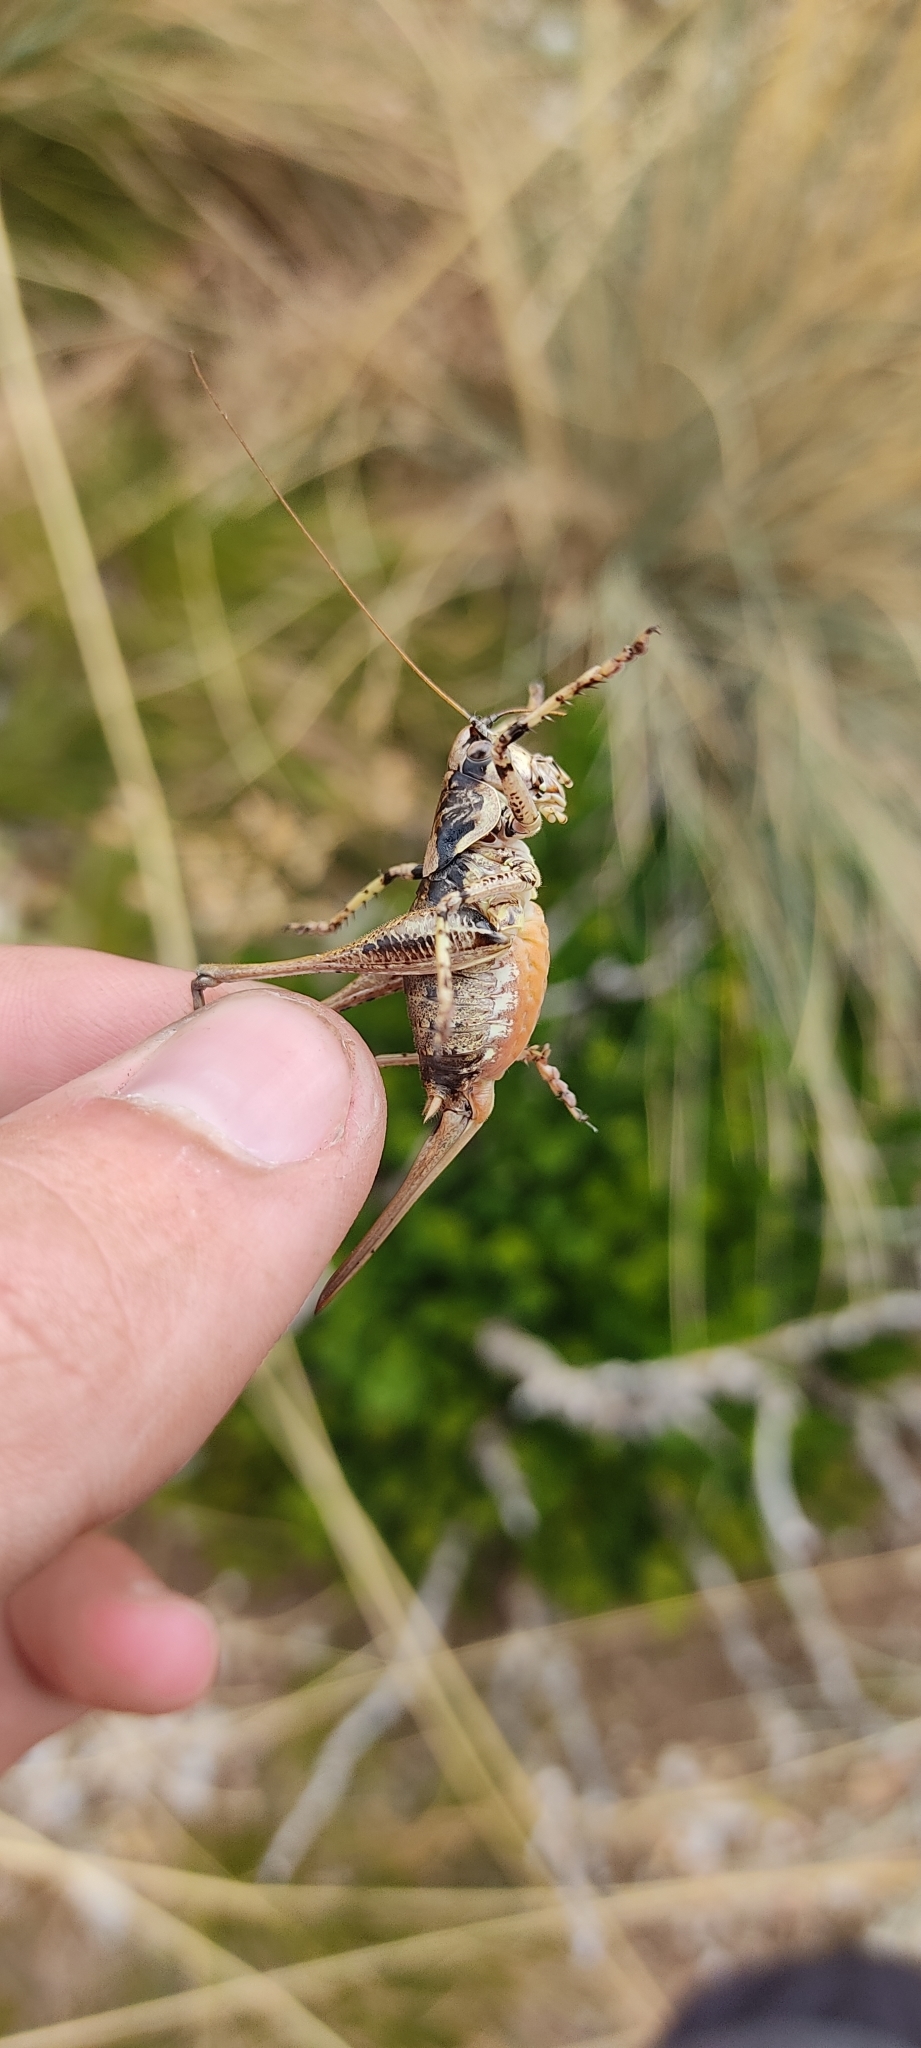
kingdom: Animalia
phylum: Arthropoda
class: Insecta
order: Orthoptera
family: Tettigoniidae
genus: Antaxius
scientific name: Antaxius pedestris
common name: Common mountain bush-cricket
